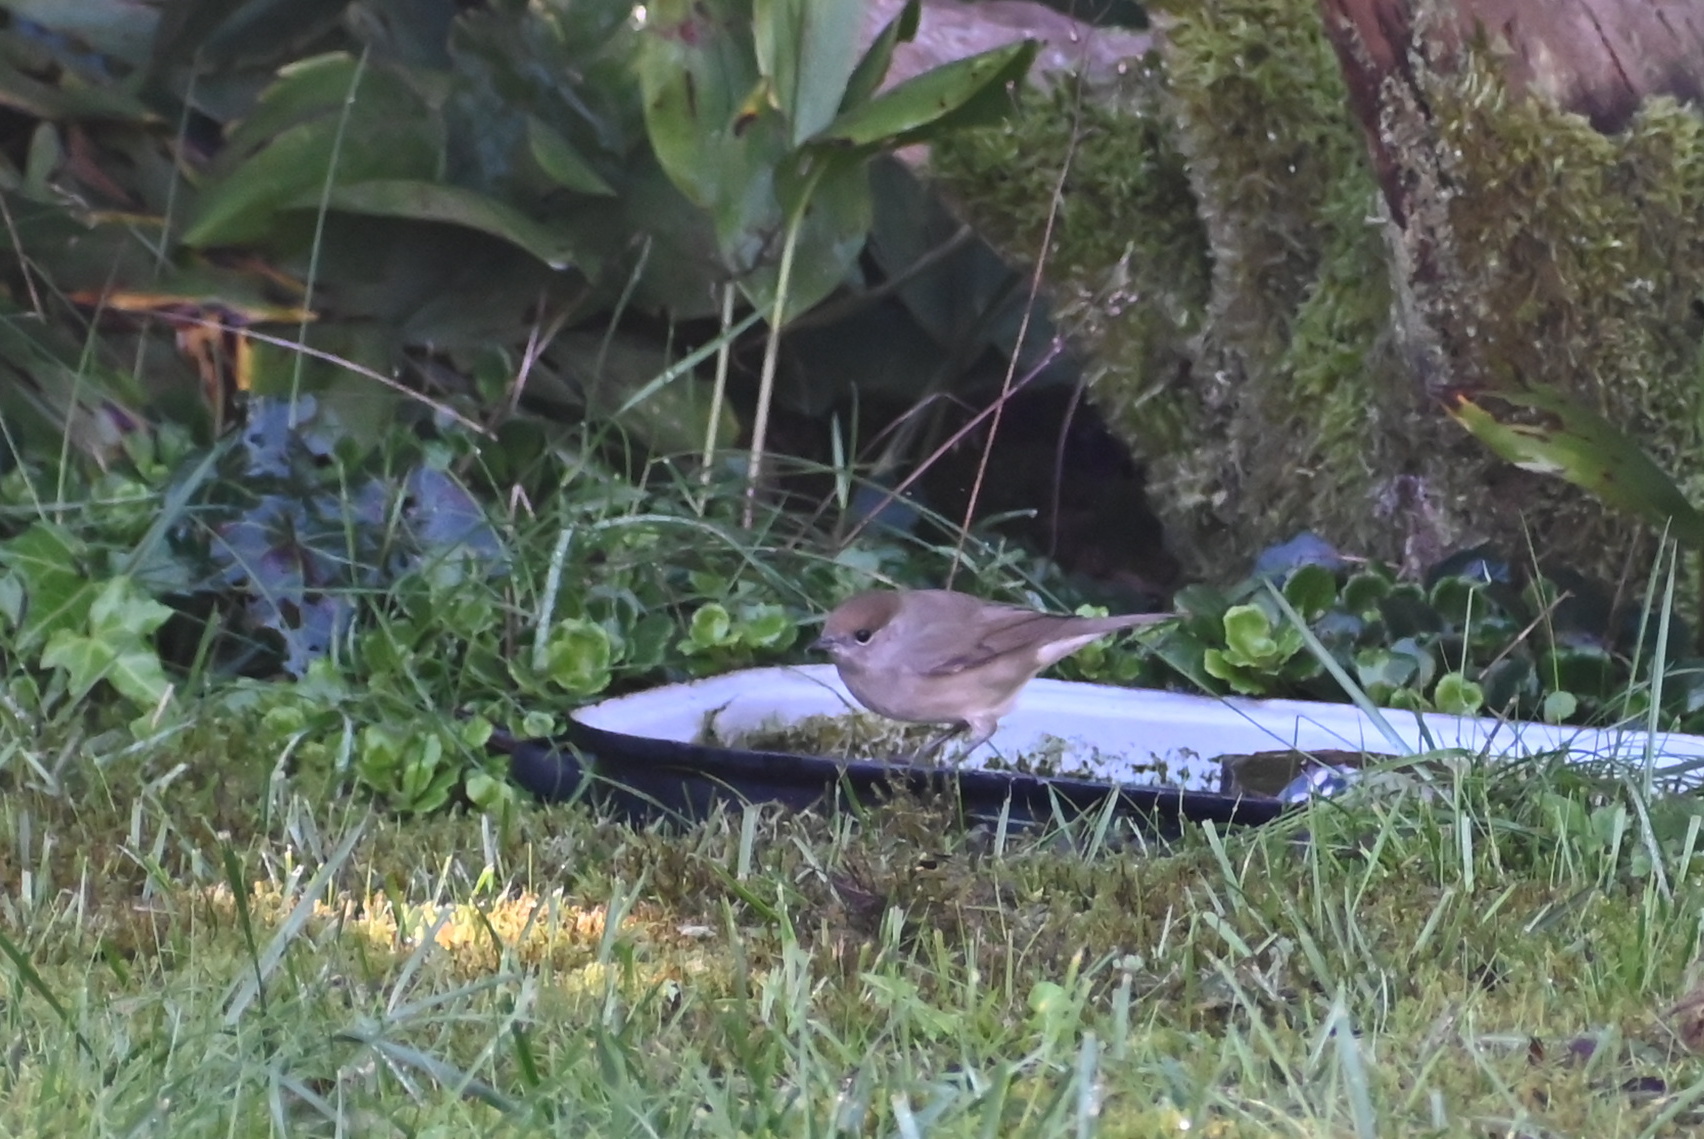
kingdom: Animalia
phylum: Chordata
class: Aves
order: Passeriformes
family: Sylviidae
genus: Sylvia
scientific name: Sylvia atricapilla
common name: Eurasian blackcap
